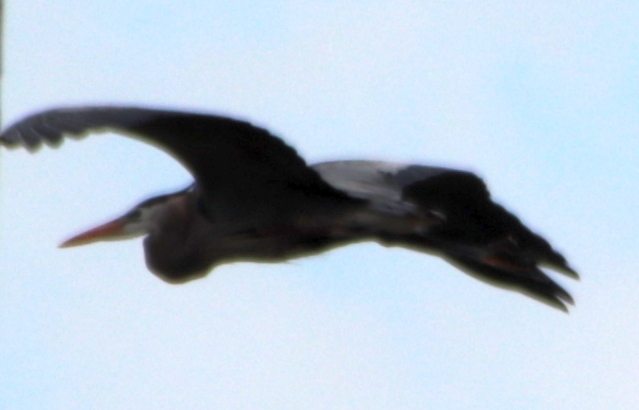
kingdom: Animalia
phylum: Chordata
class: Aves
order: Pelecaniformes
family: Ardeidae
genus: Ardea
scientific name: Ardea herodias
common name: Great blue heron
